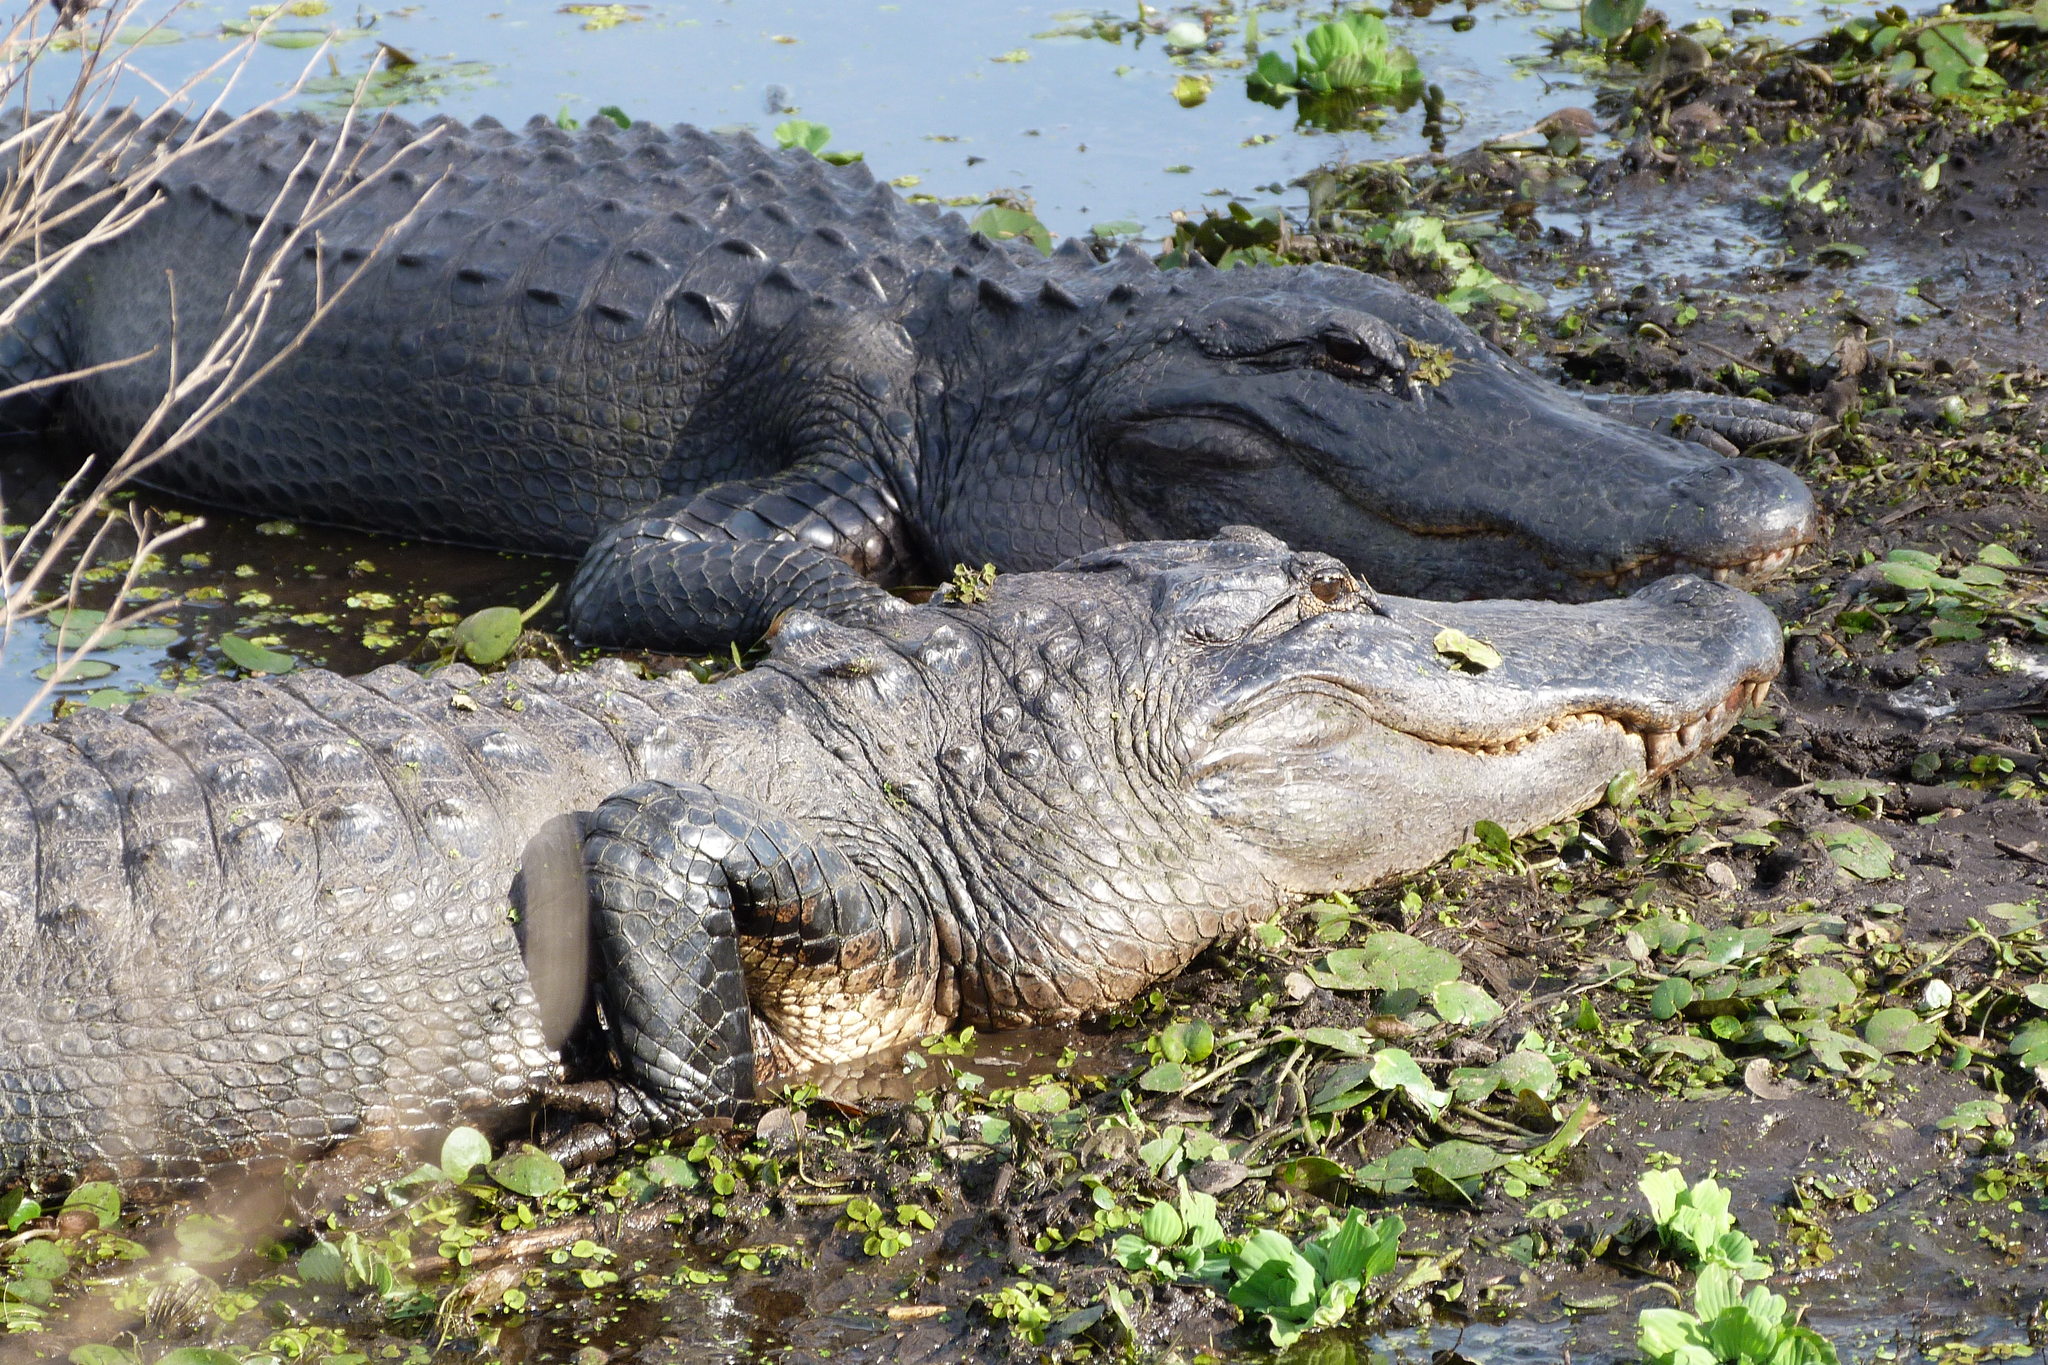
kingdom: Animalia
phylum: Chordata
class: Crocodylia
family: Alligatoridae
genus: Alligator
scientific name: Alligator mississippiensis
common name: American alligator
